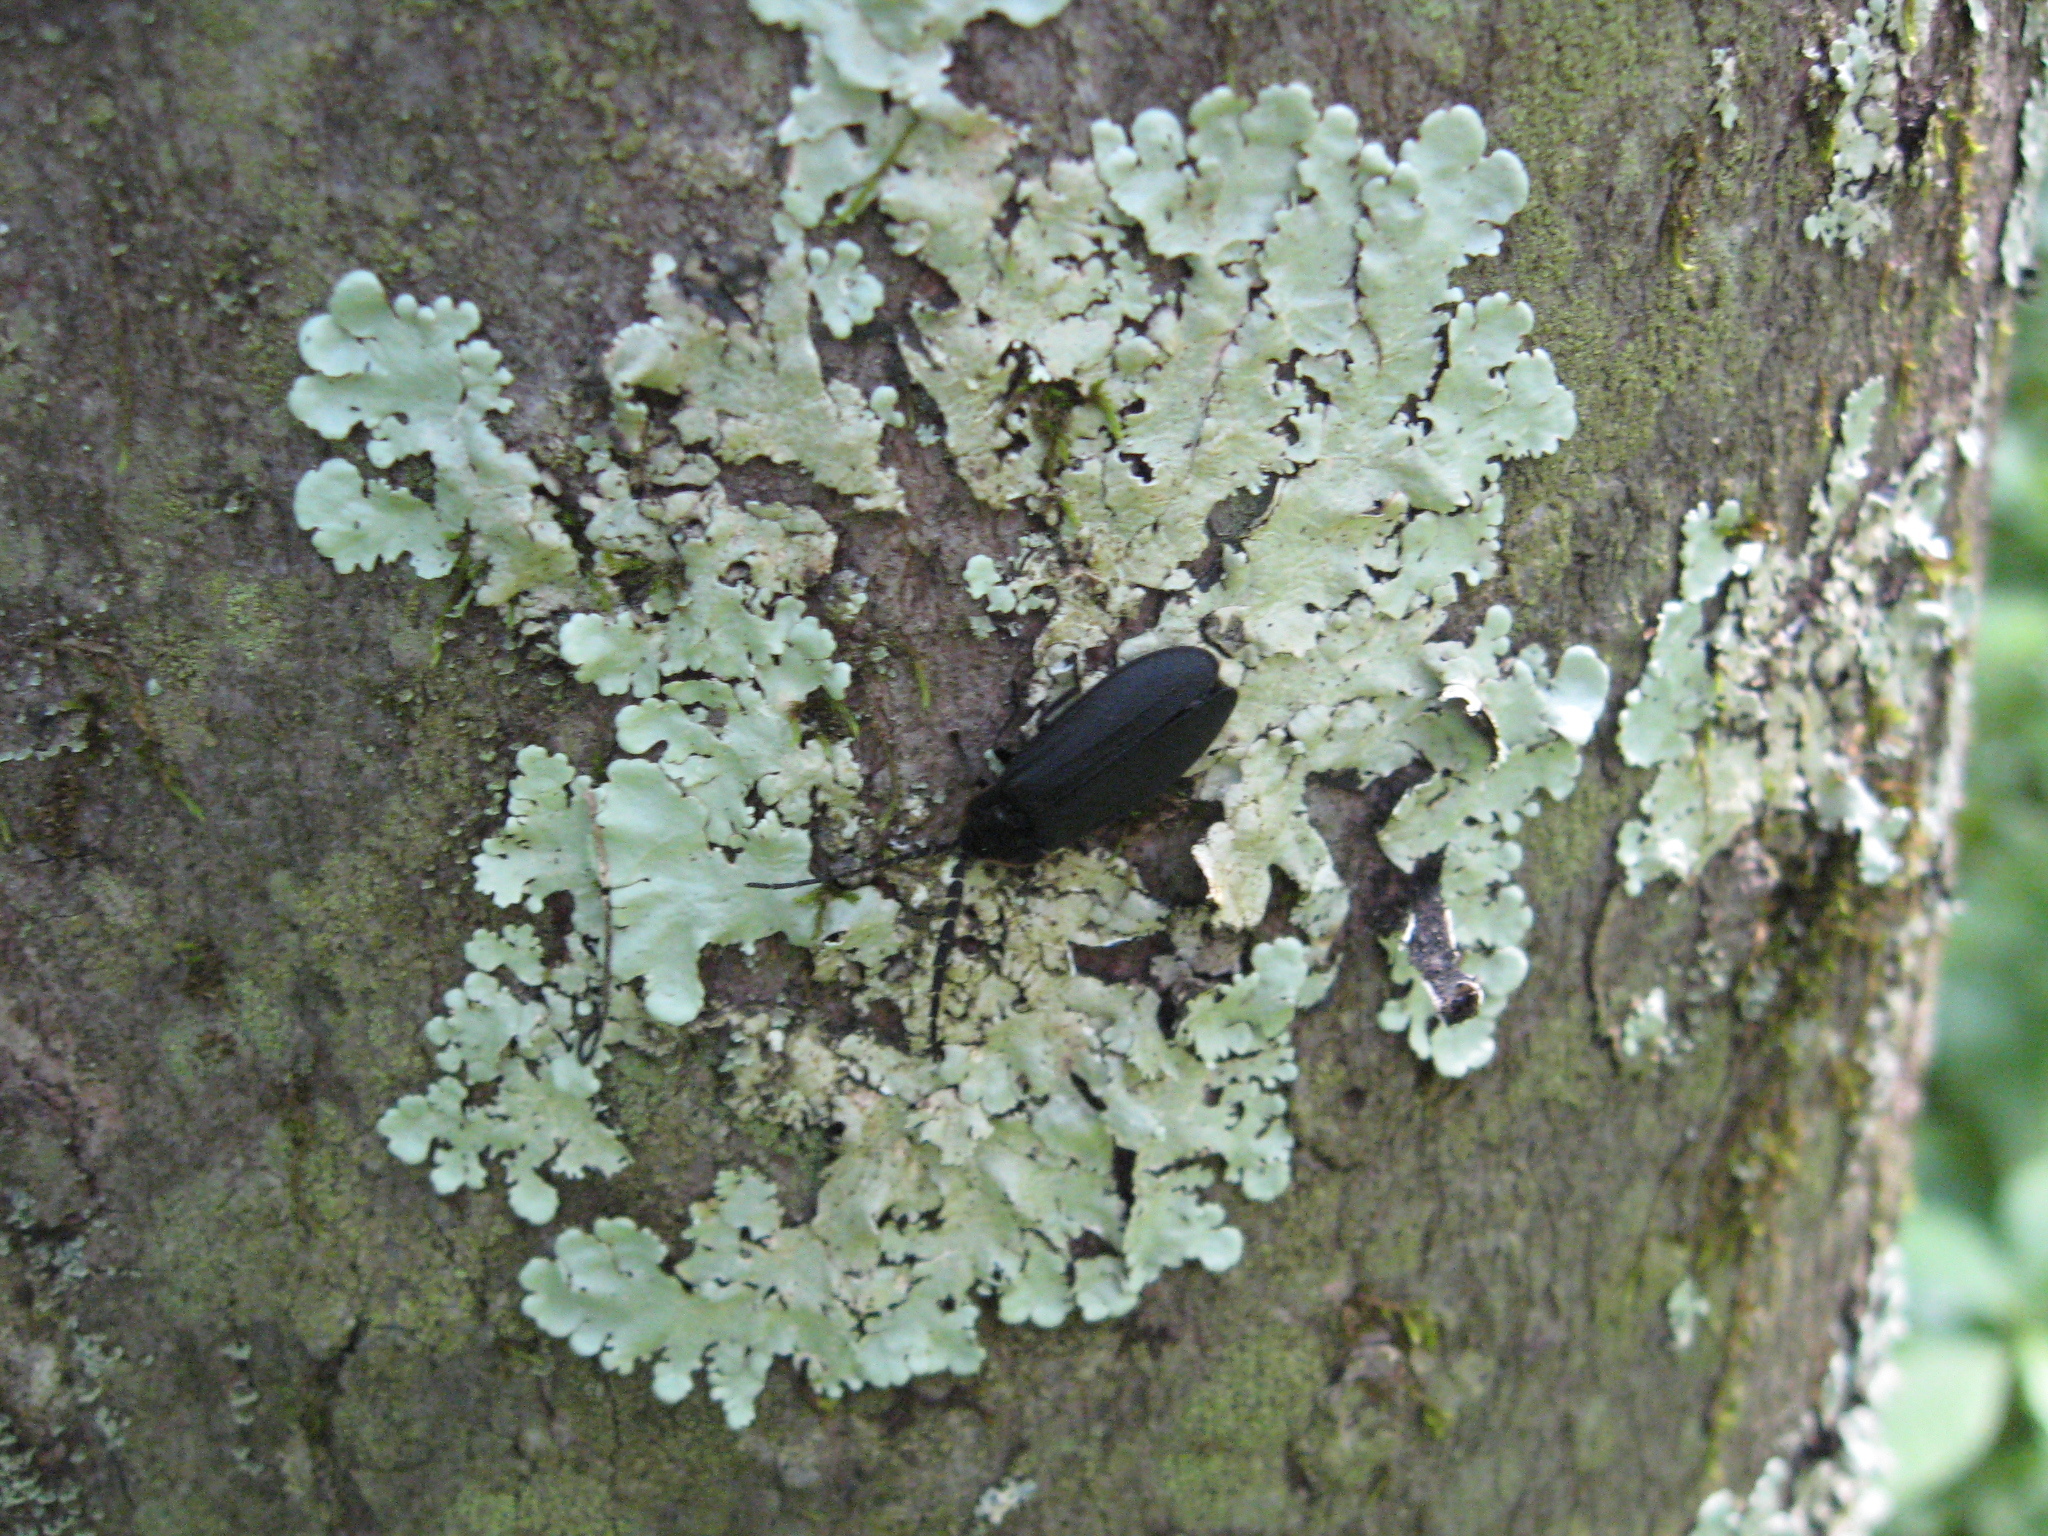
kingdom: Animalia
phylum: Arthropoda
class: Insecta
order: Coleoptera
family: Lampyridae
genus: Lucidota
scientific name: Lucidota atra
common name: Black firefly
